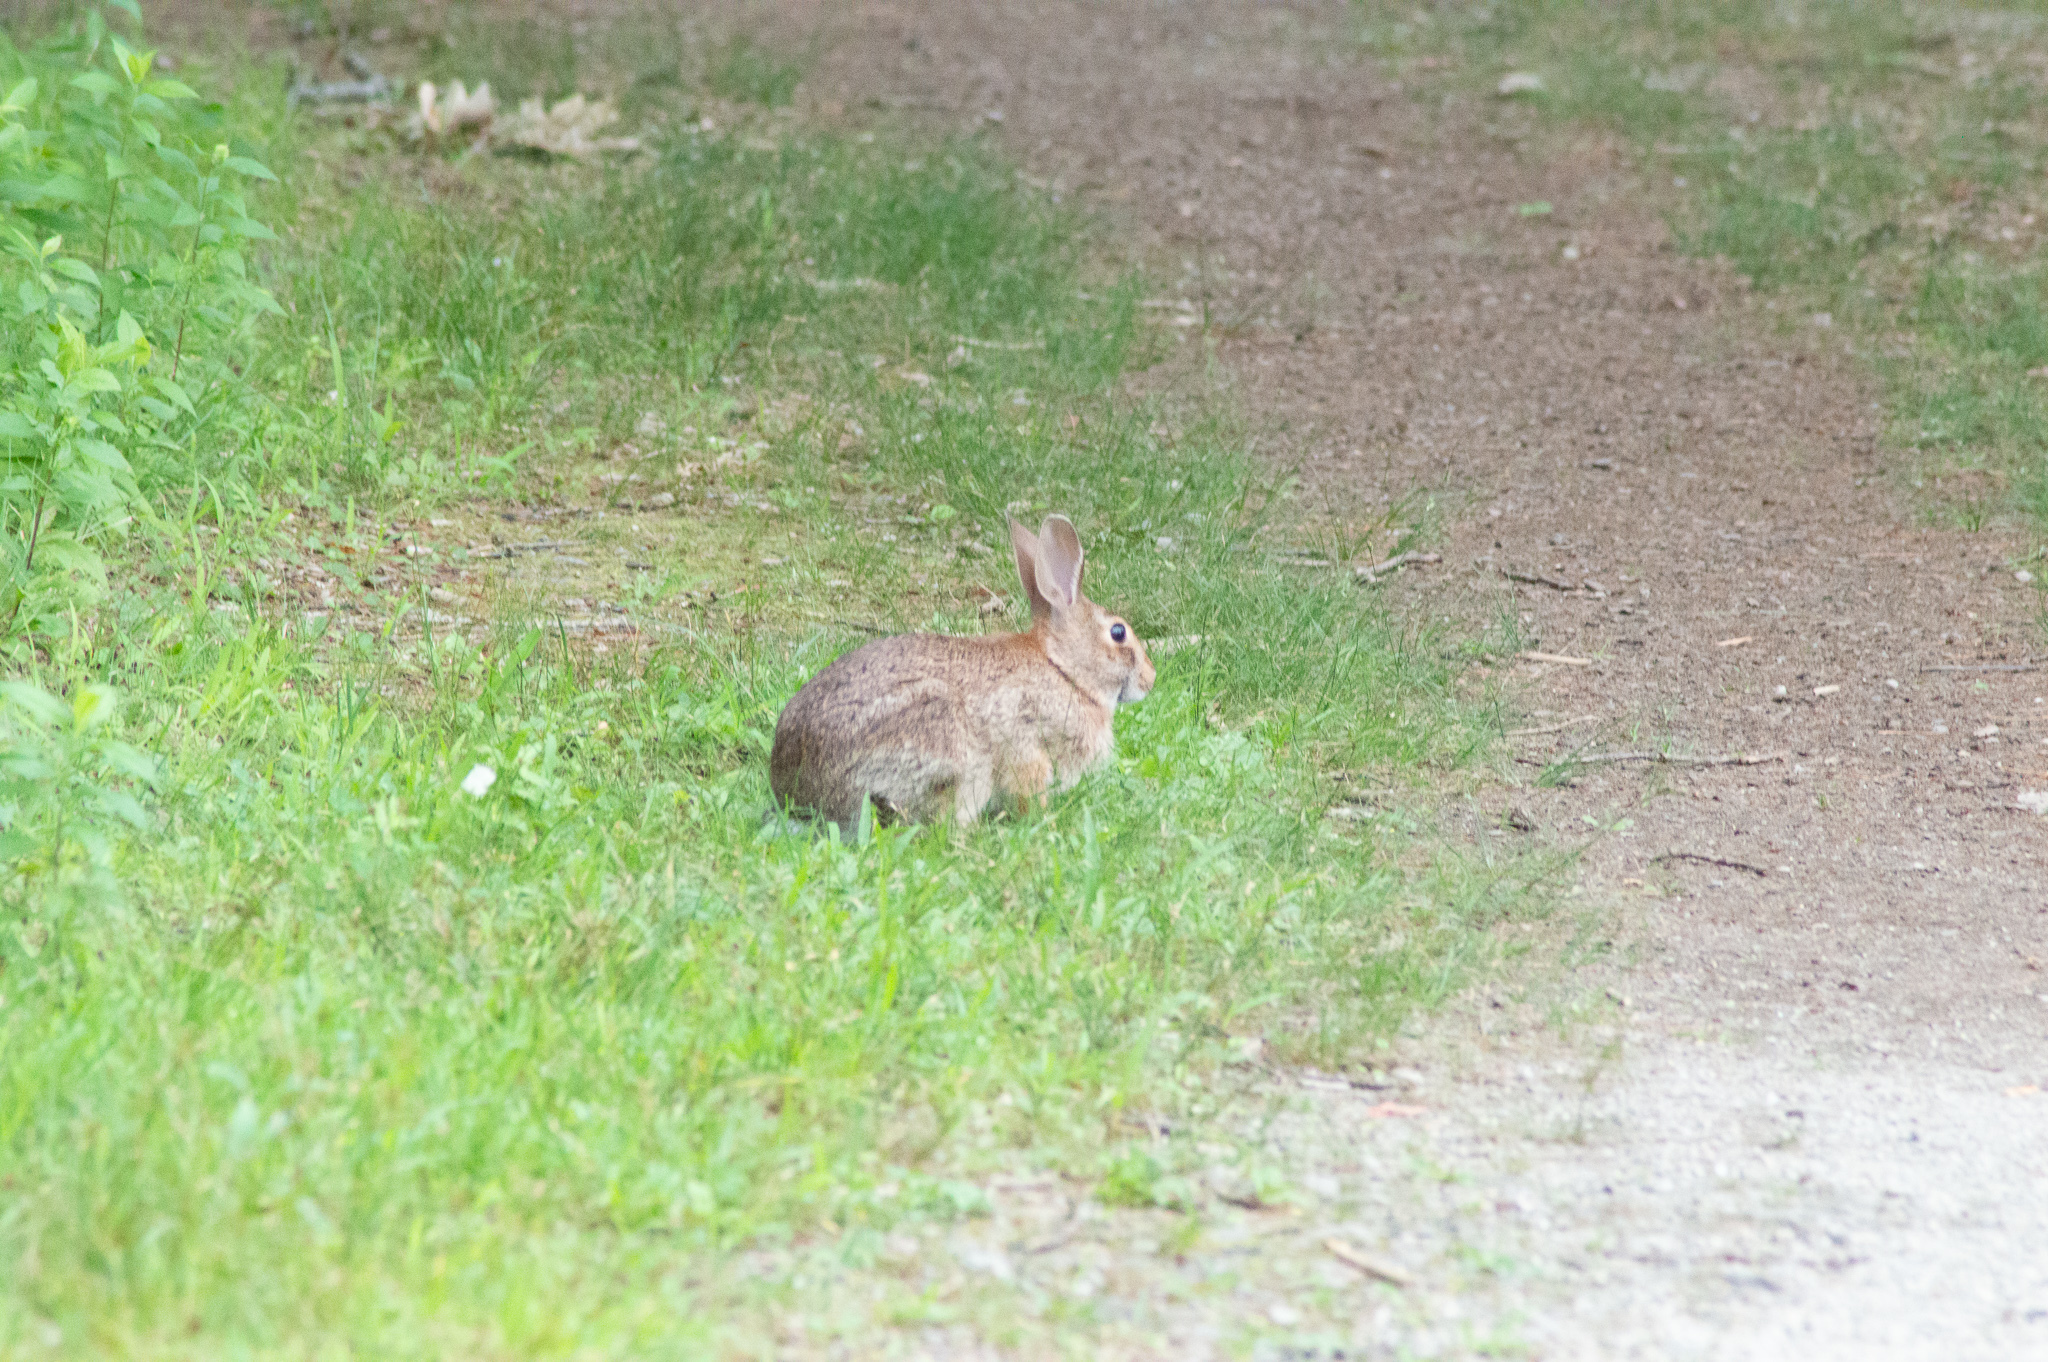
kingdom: Animalia
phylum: Chordata
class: Mammalia
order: Lagomorpha
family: Leporidae
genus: Sylvilagus
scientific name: Sylvilagus floridanus
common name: Eastern cottontail
